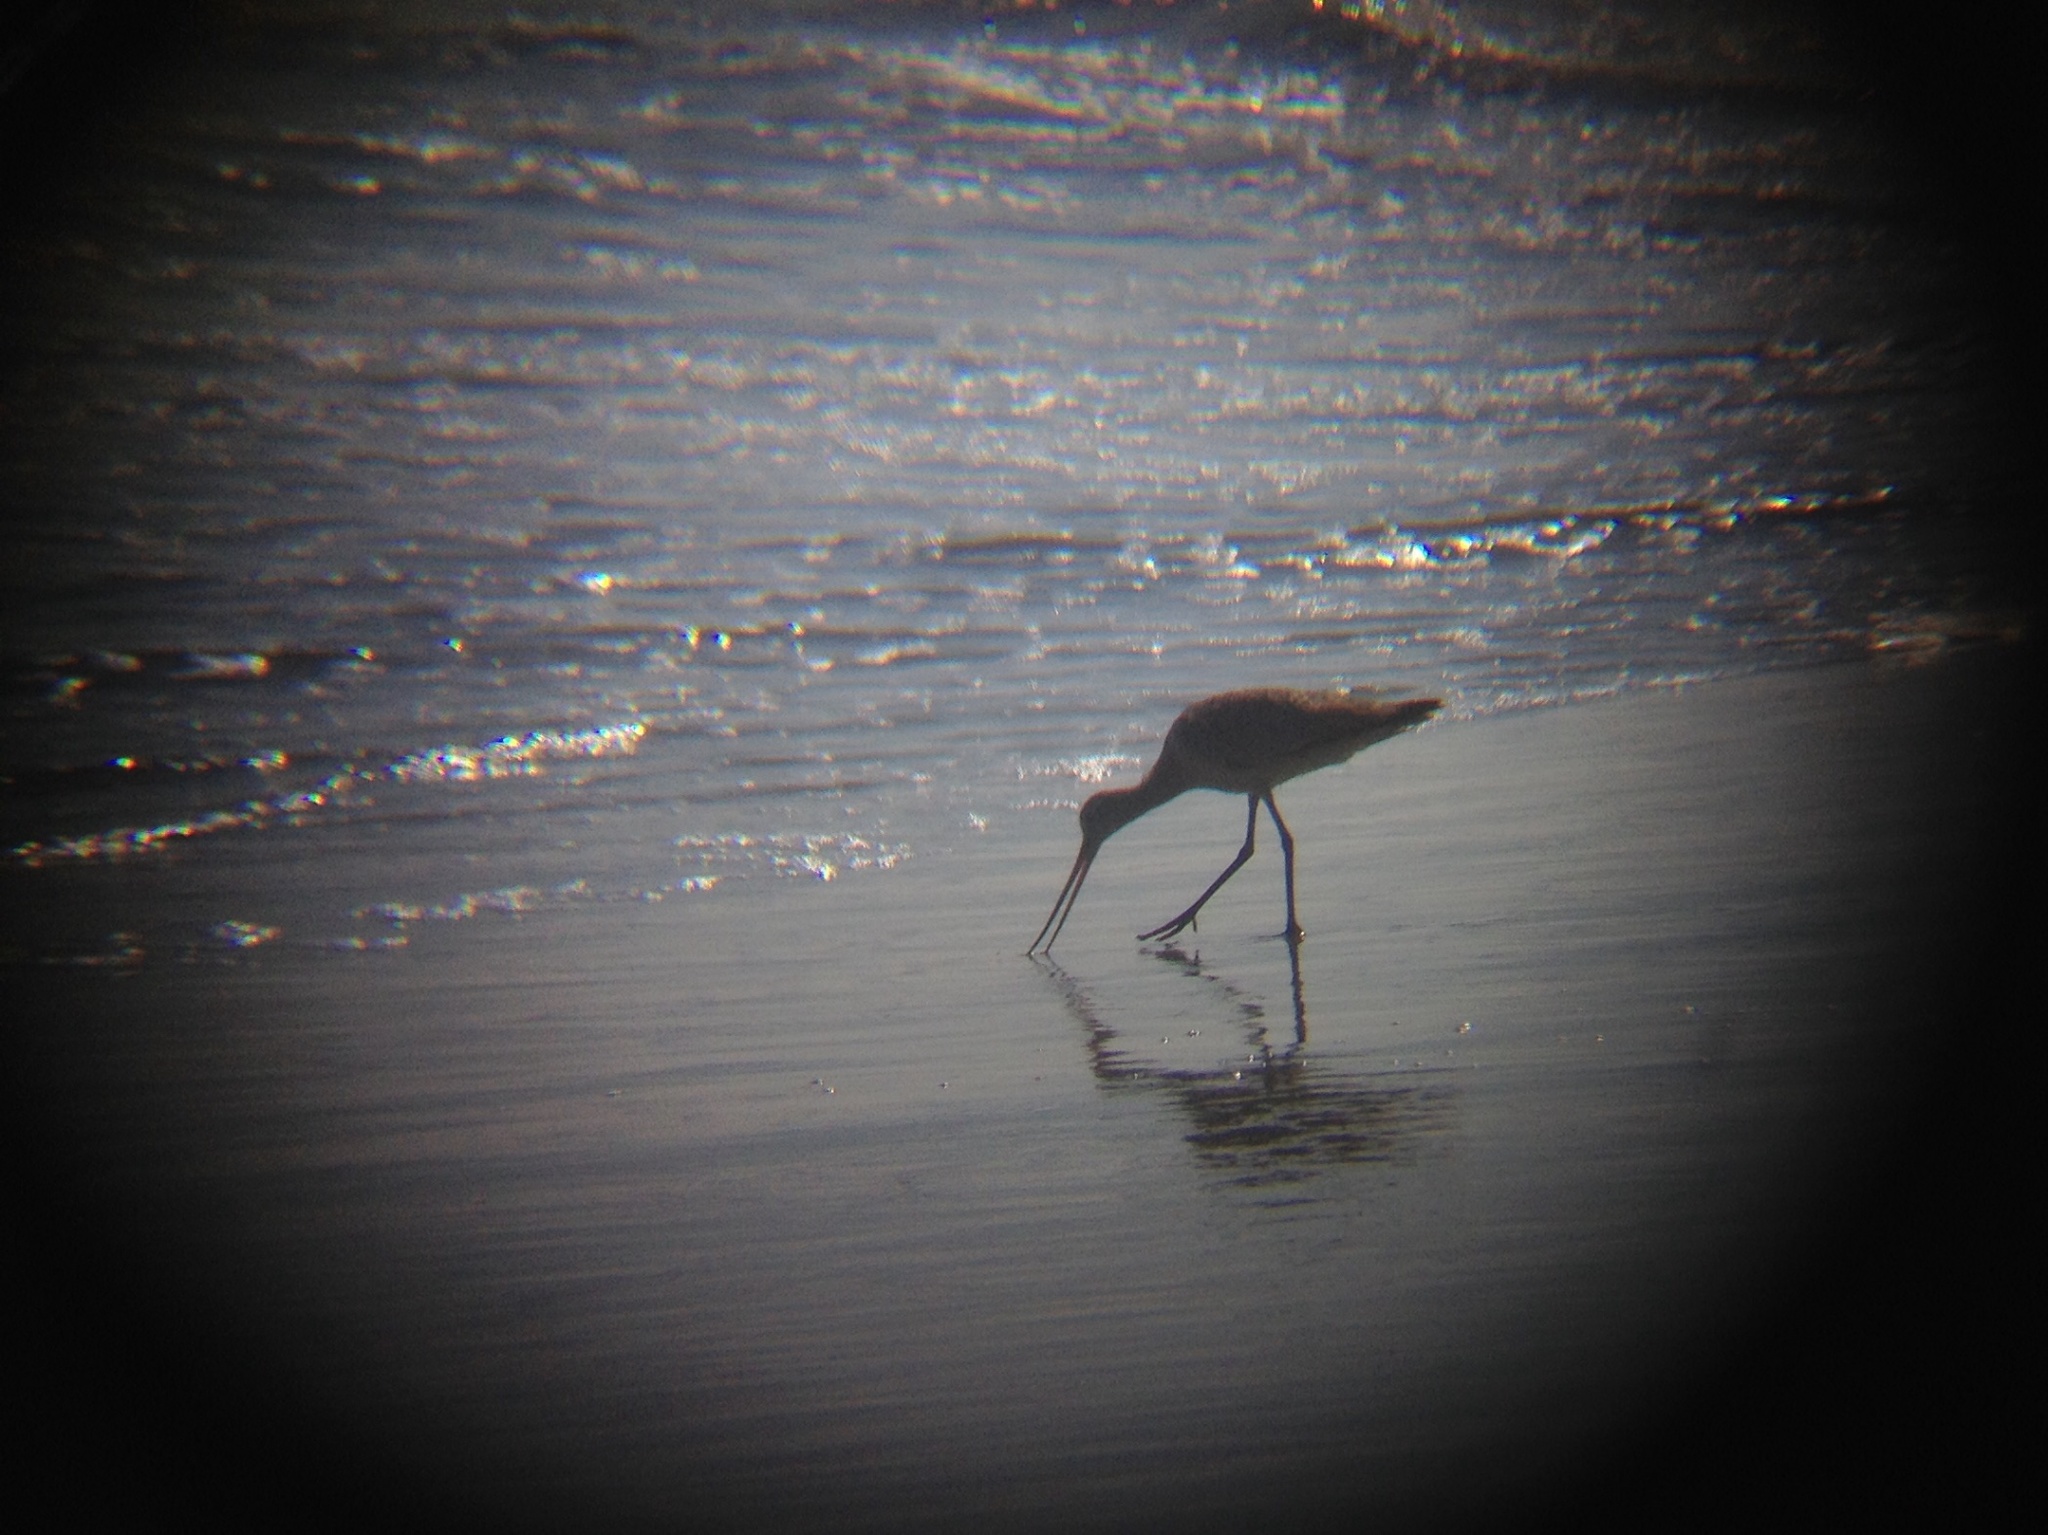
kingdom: Animalia
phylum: Chordata
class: Aves
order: Charadriiformes
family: Scolopacidae
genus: Limosa
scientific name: Limosa fedoa
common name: Marbled godwit
